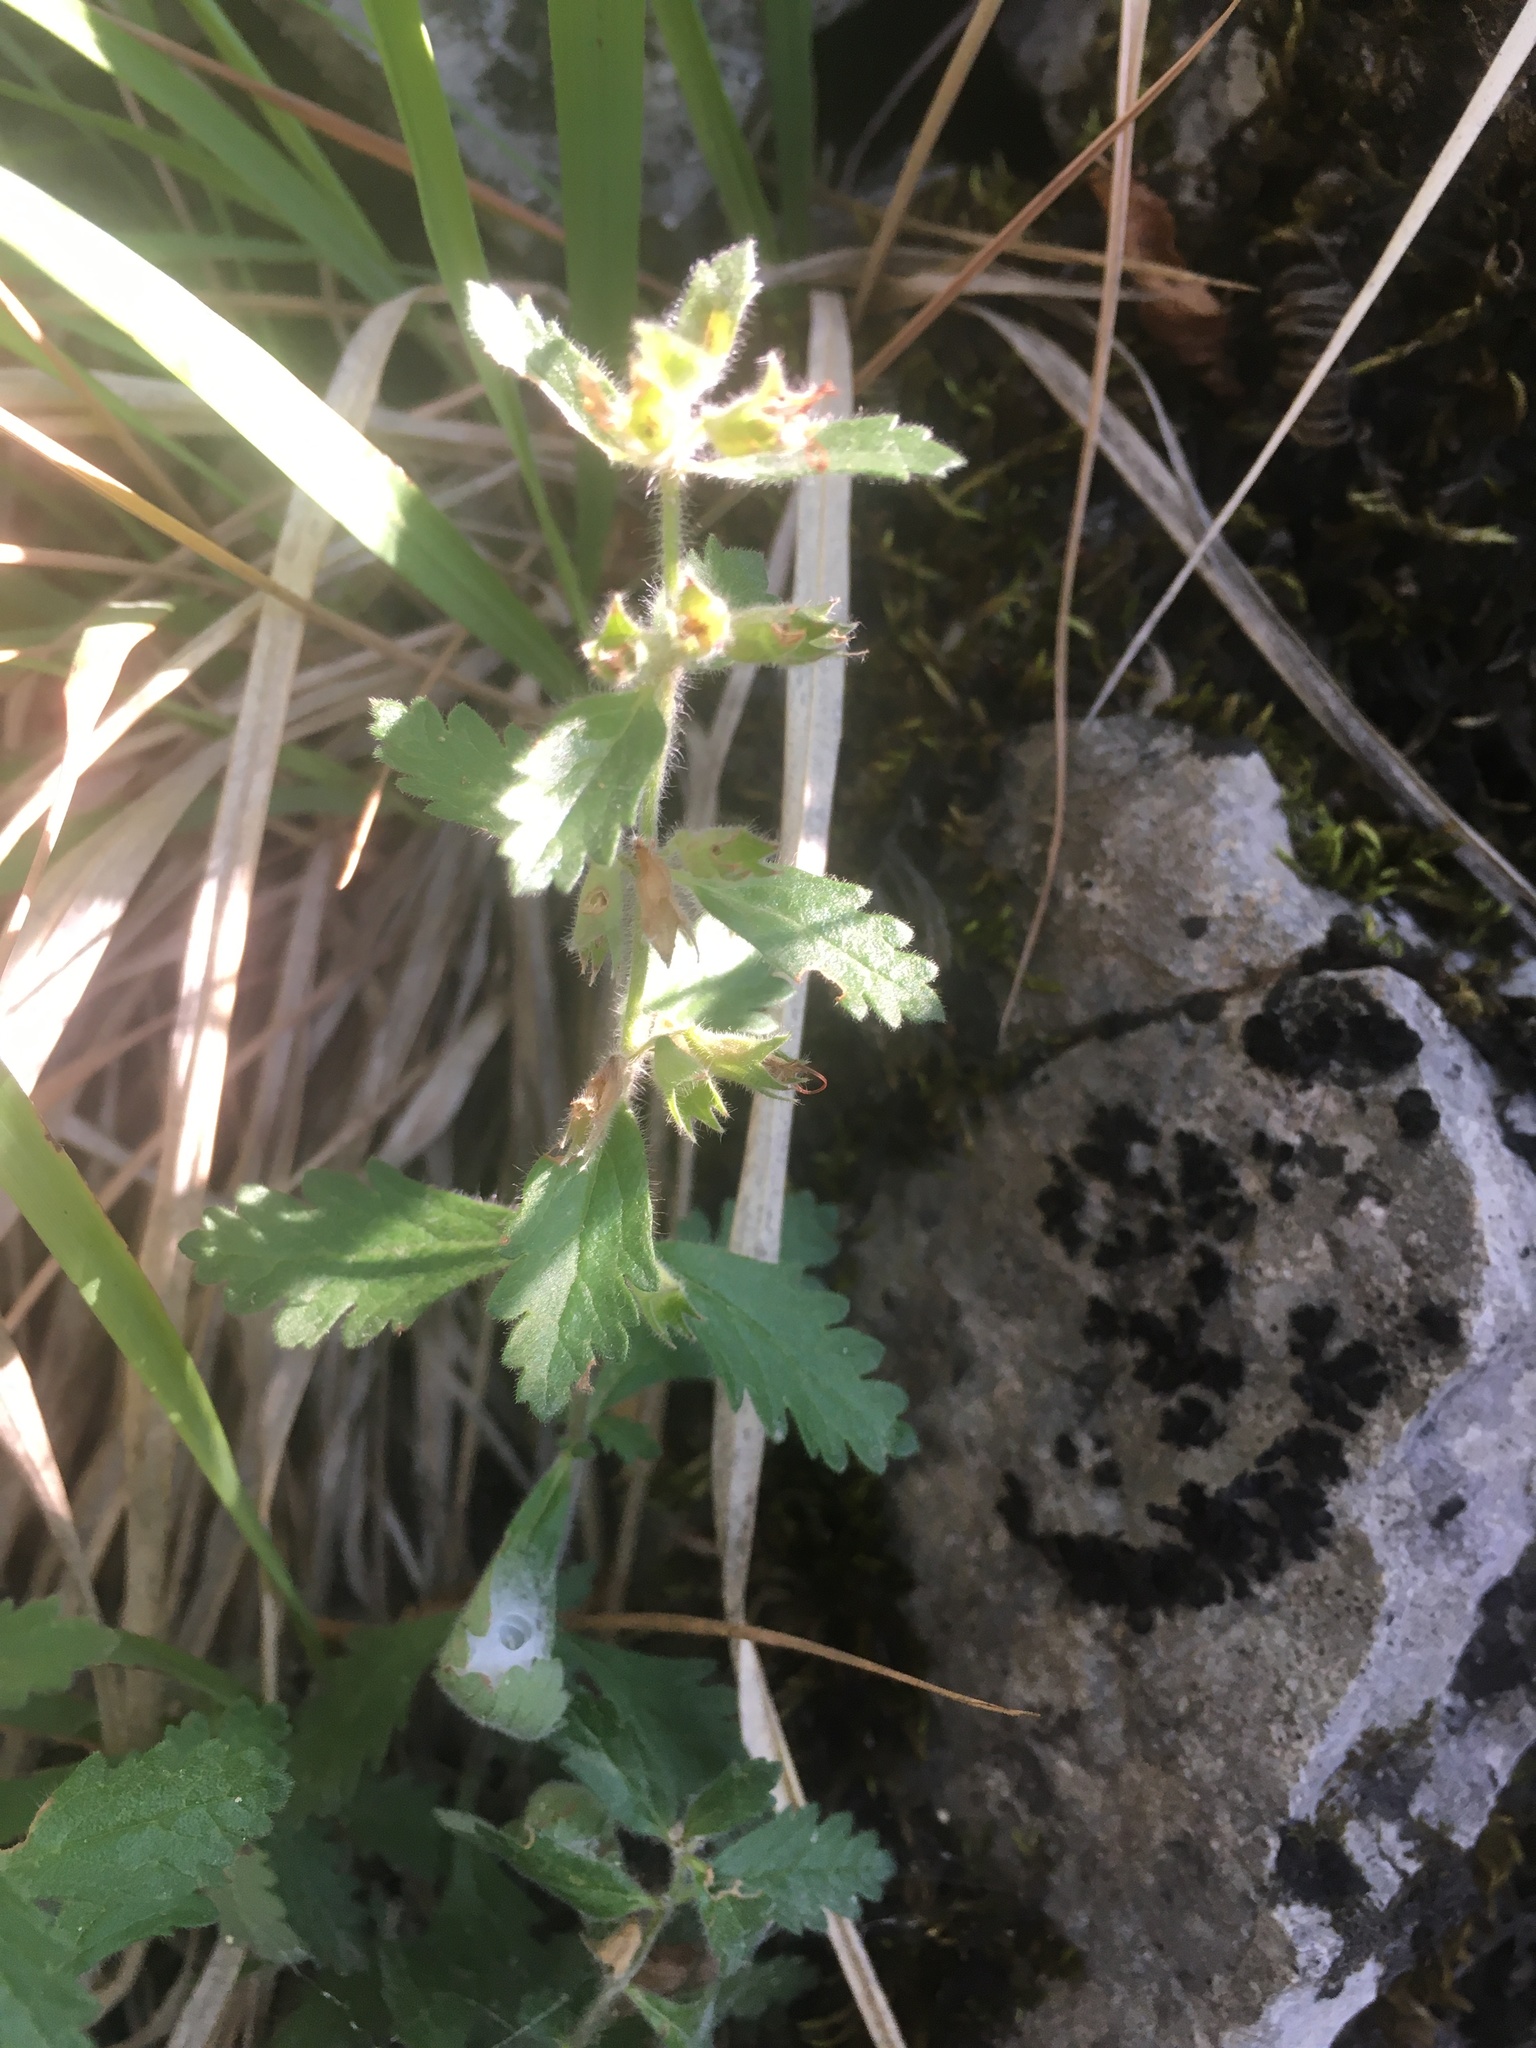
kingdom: Plantae
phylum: Tracheophyta
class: Magnoliopsida
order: Lamiales
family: Lamiaceae
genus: Teucrium
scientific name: Teucrium chamaedrys
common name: Wall germander
